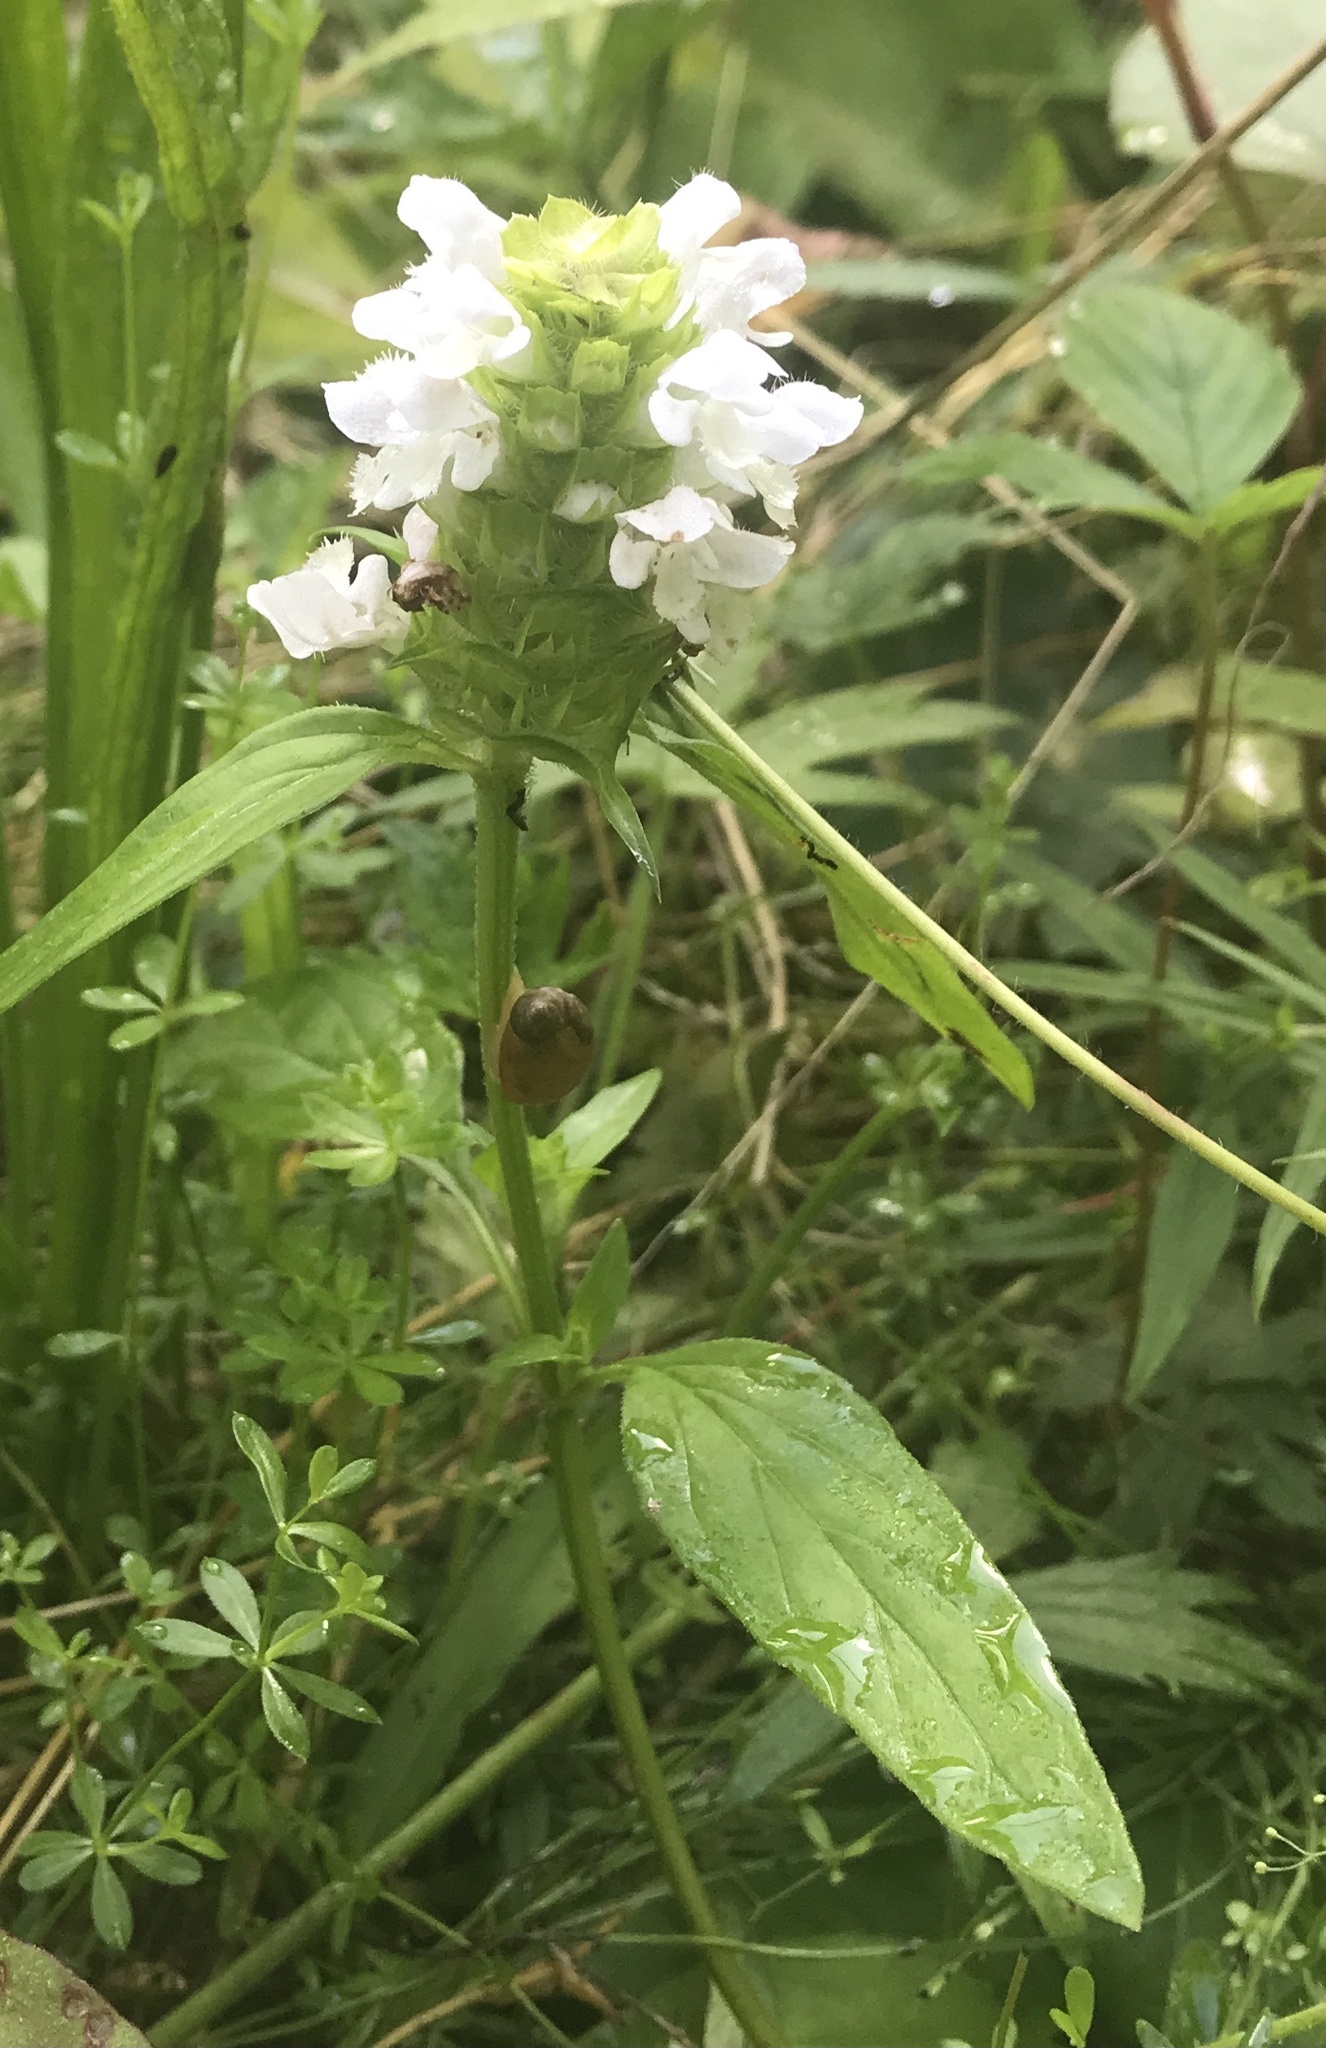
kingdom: Plantae
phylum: Tracheophyta
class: Magnoliopsida
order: Lamiales
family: Lamiaceae
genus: Prunella
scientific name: Prunella vulgaris
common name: Heal-all
